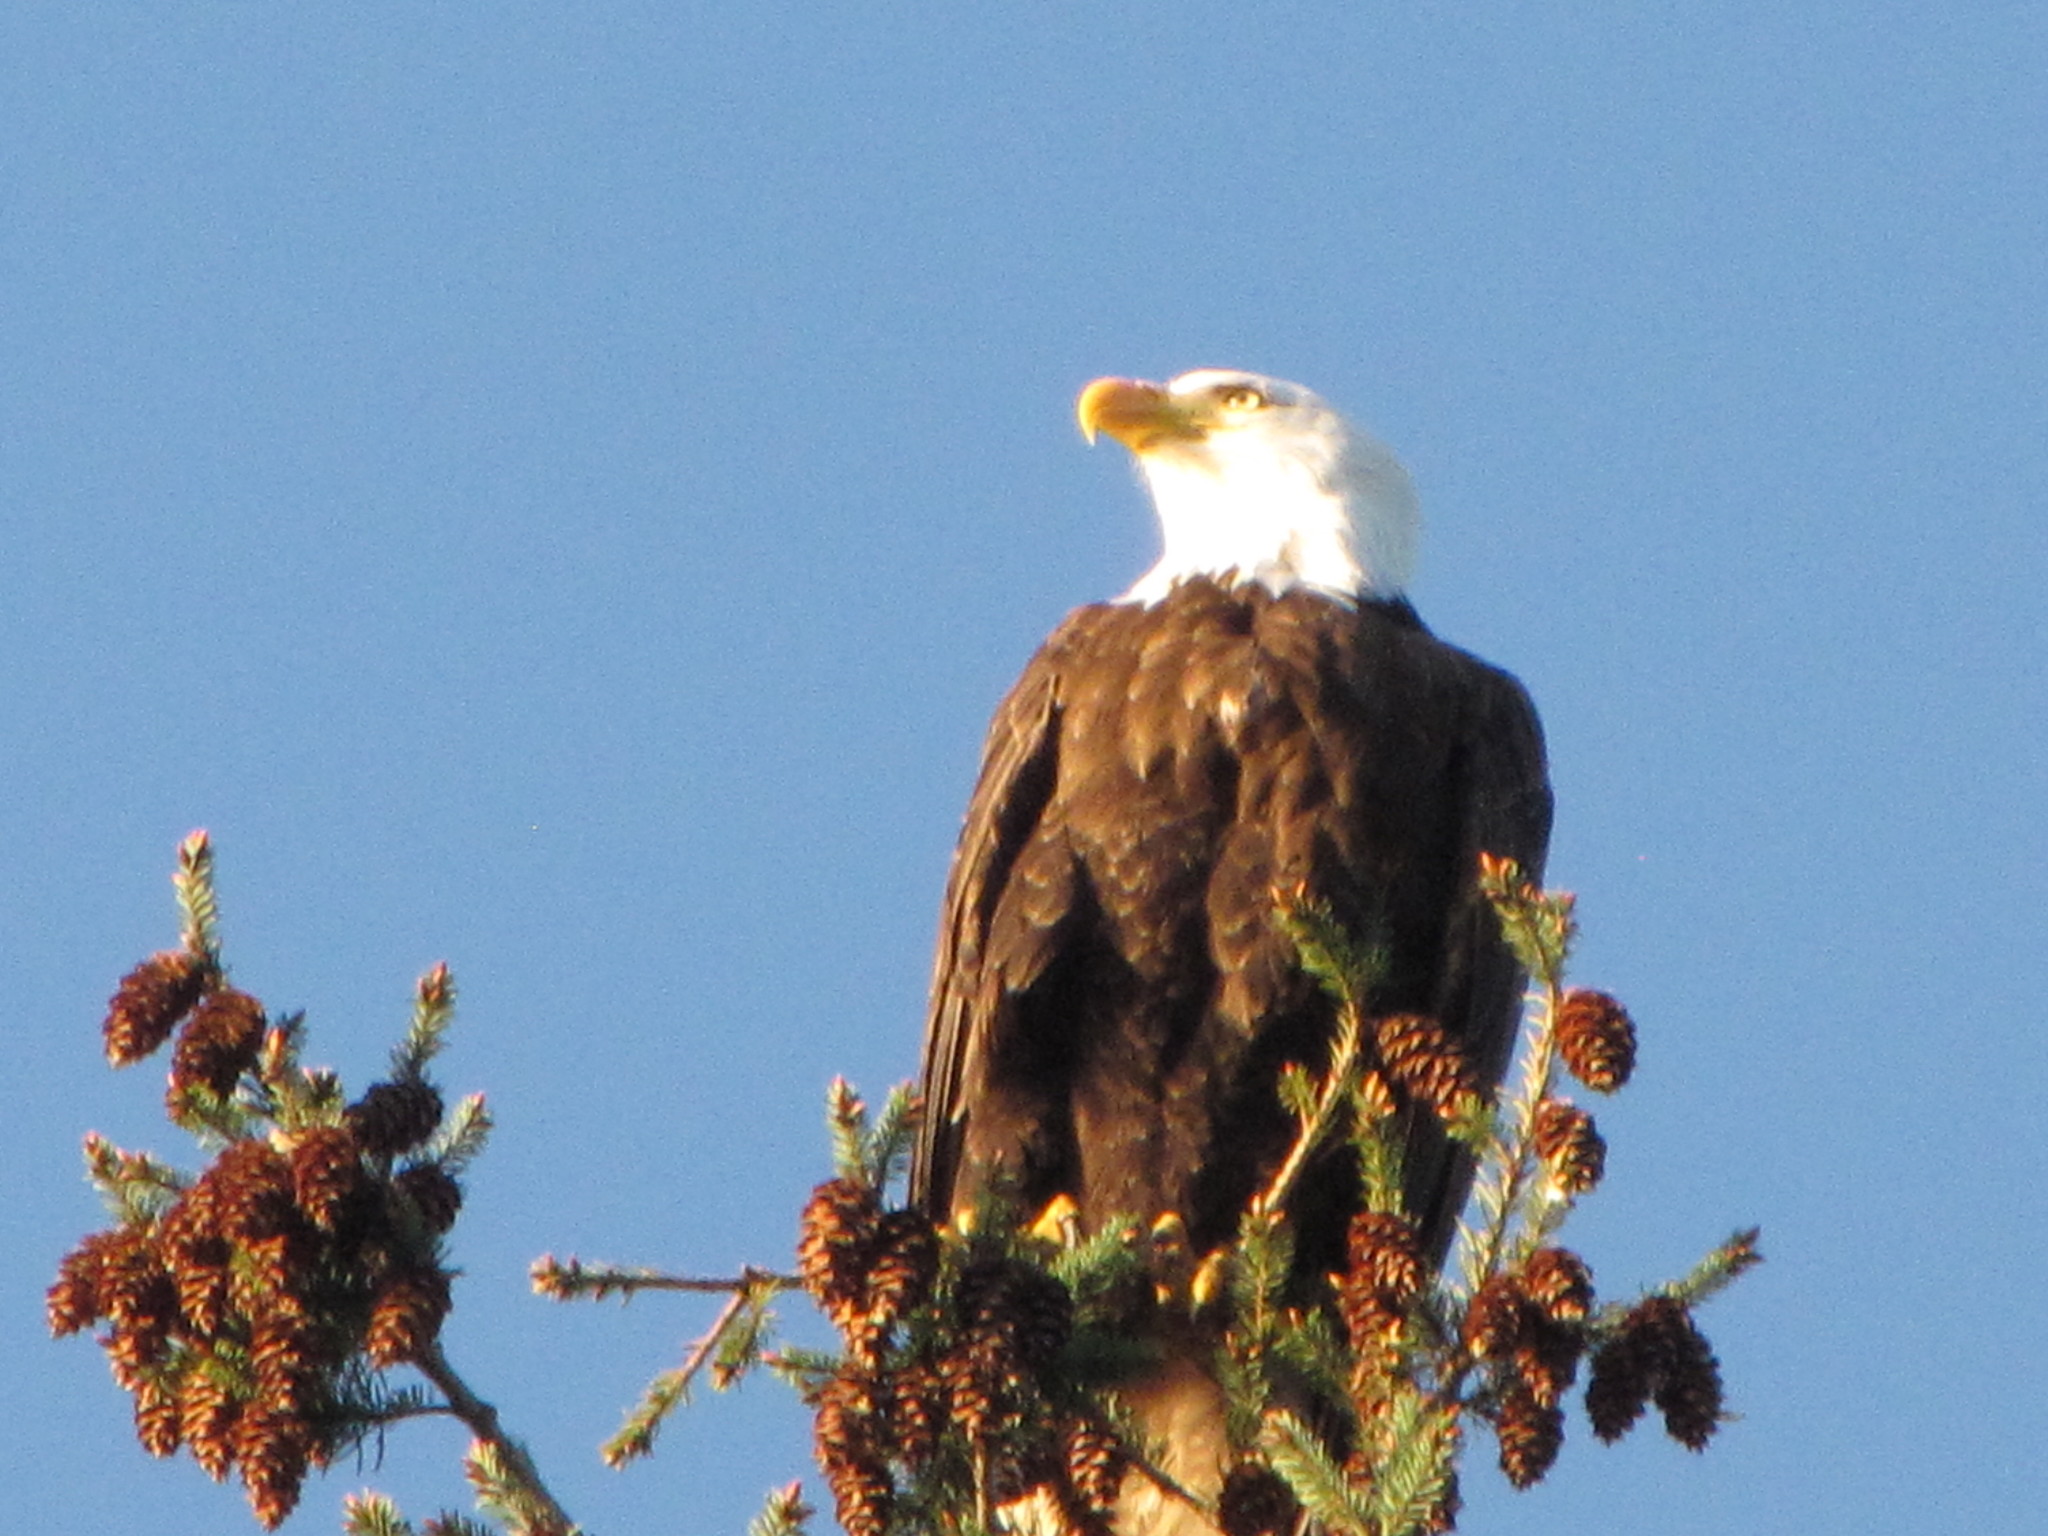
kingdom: Animalia
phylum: Chordata
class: Aves
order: Accipitriformes
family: Accipitridae
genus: Haliaeetus
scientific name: Haliaeetus leucocephalus
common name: Bald eagle
